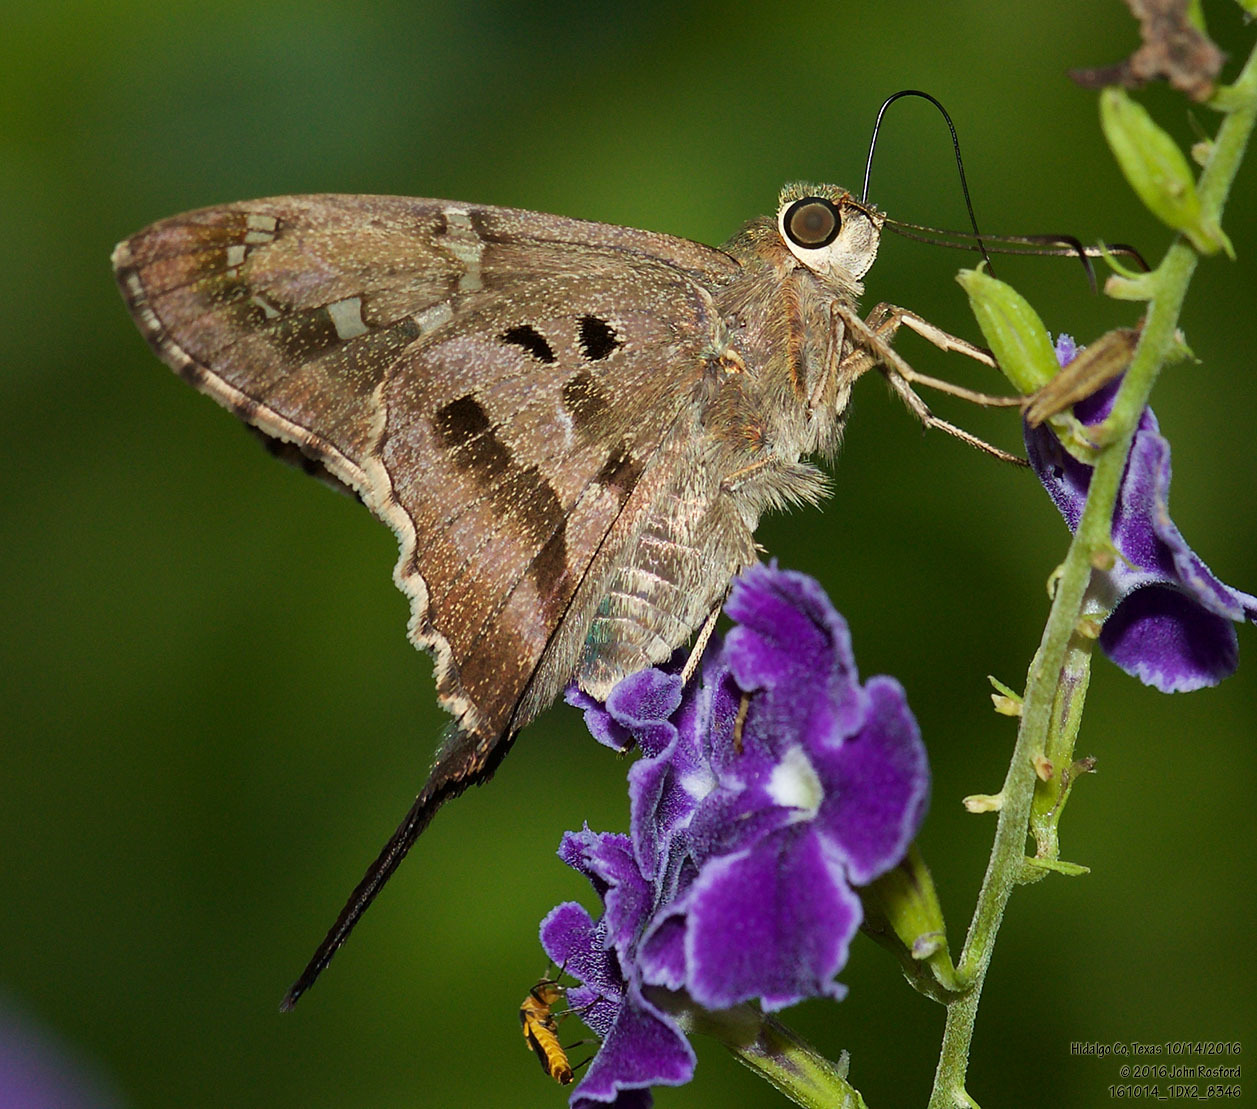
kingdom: Animalia
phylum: Arthropoda
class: Insecta
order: Lepidoptera
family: Hesperiidae
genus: Urbanus
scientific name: Urbanus proteus
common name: Long-tailed skipper
